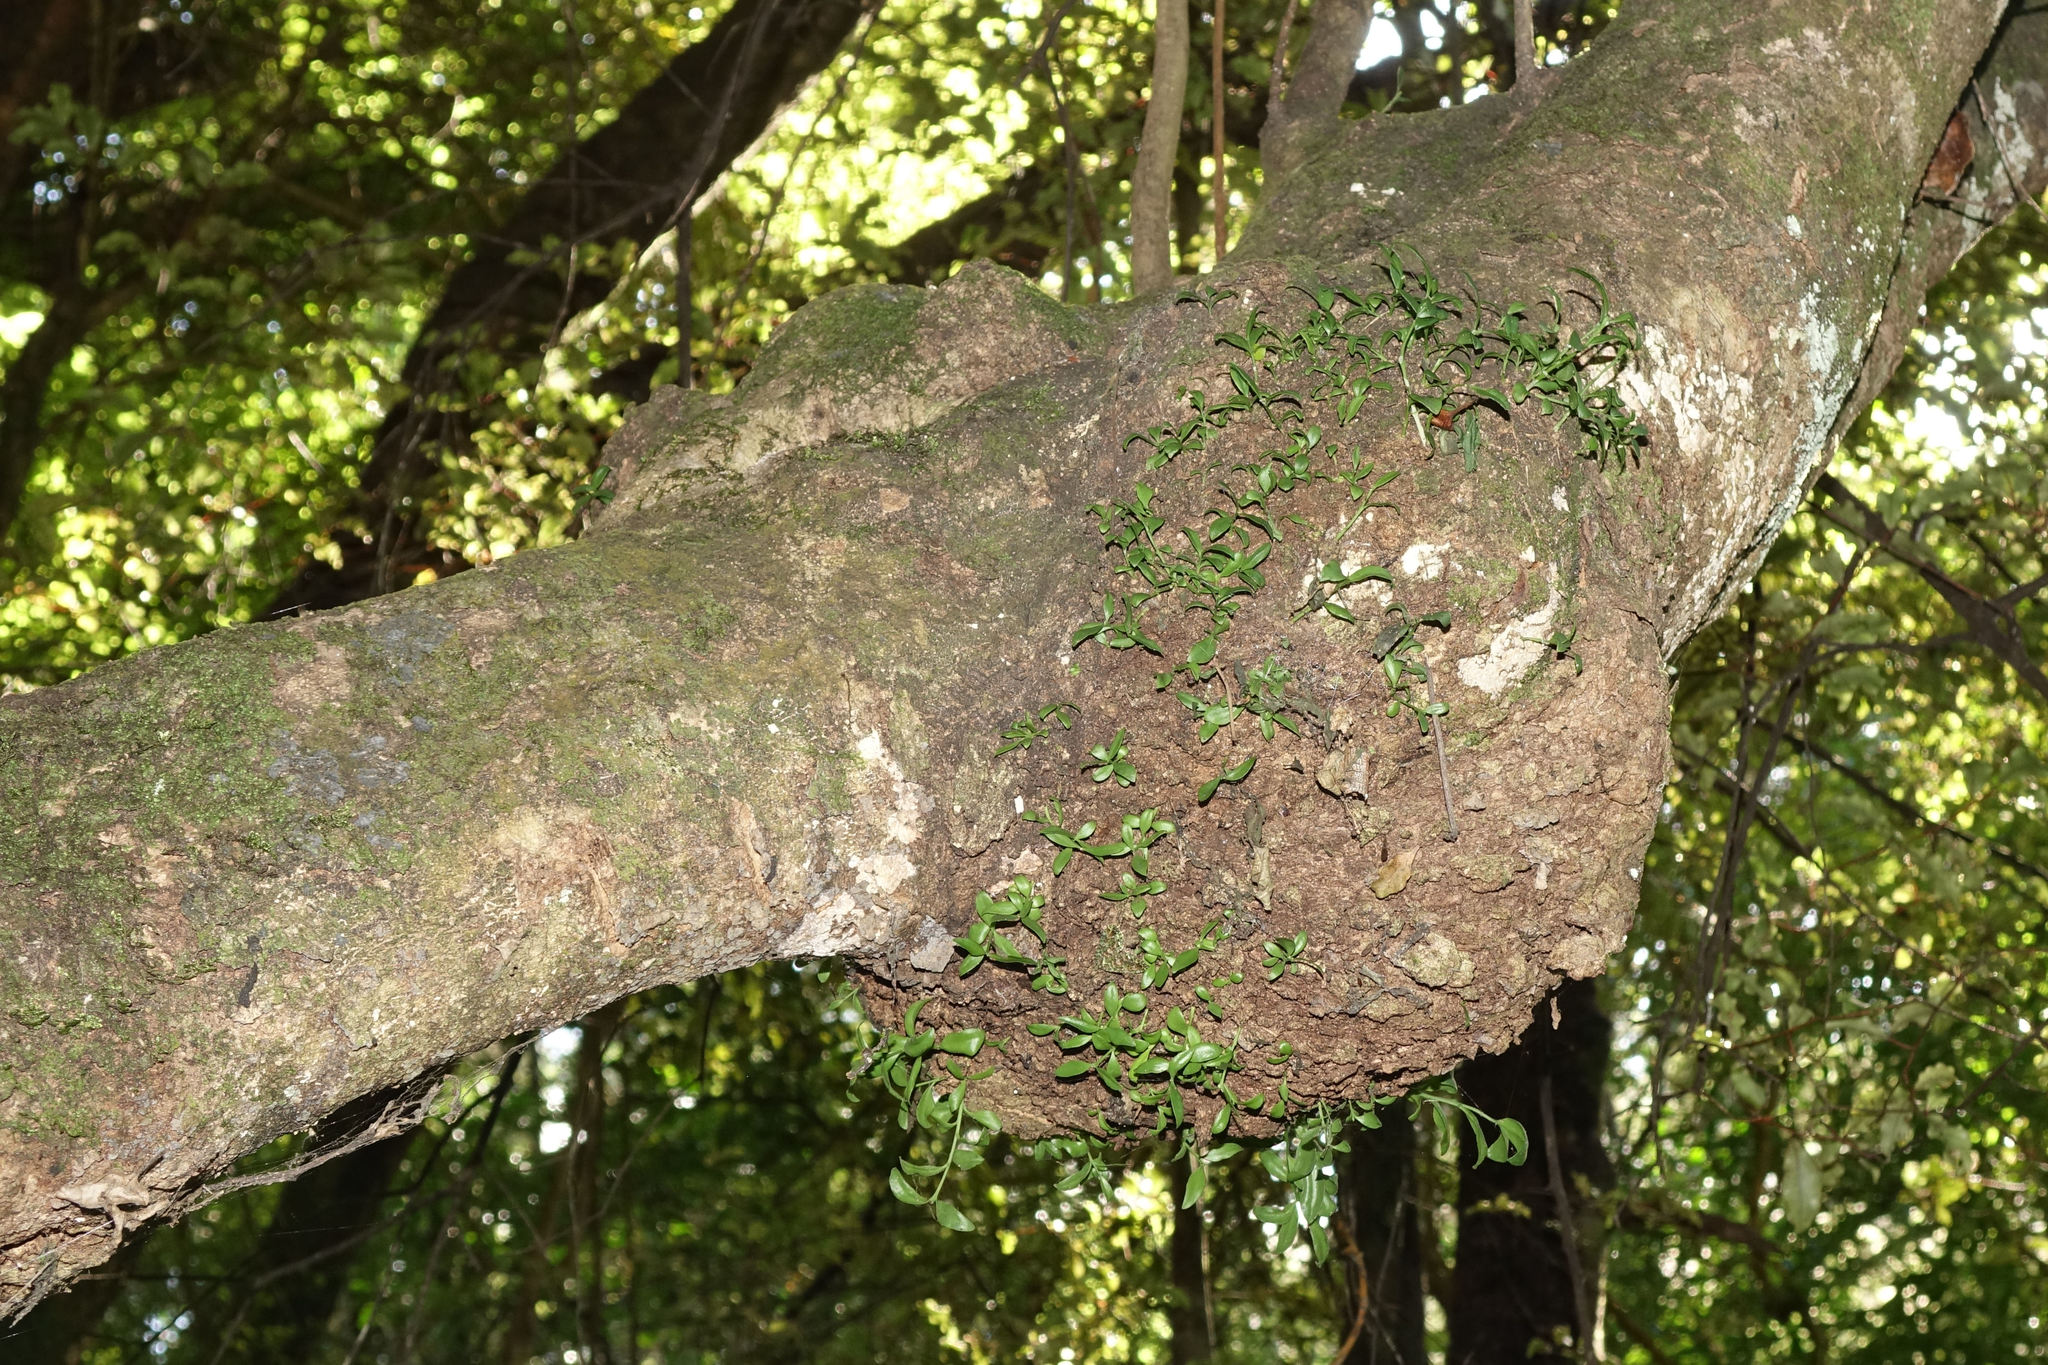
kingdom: Plantae
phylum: Tracheophyta
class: Magnoliopsida
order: Santalales
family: Loranthaceae
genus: Tupeia
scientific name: Tupeia antarctica
